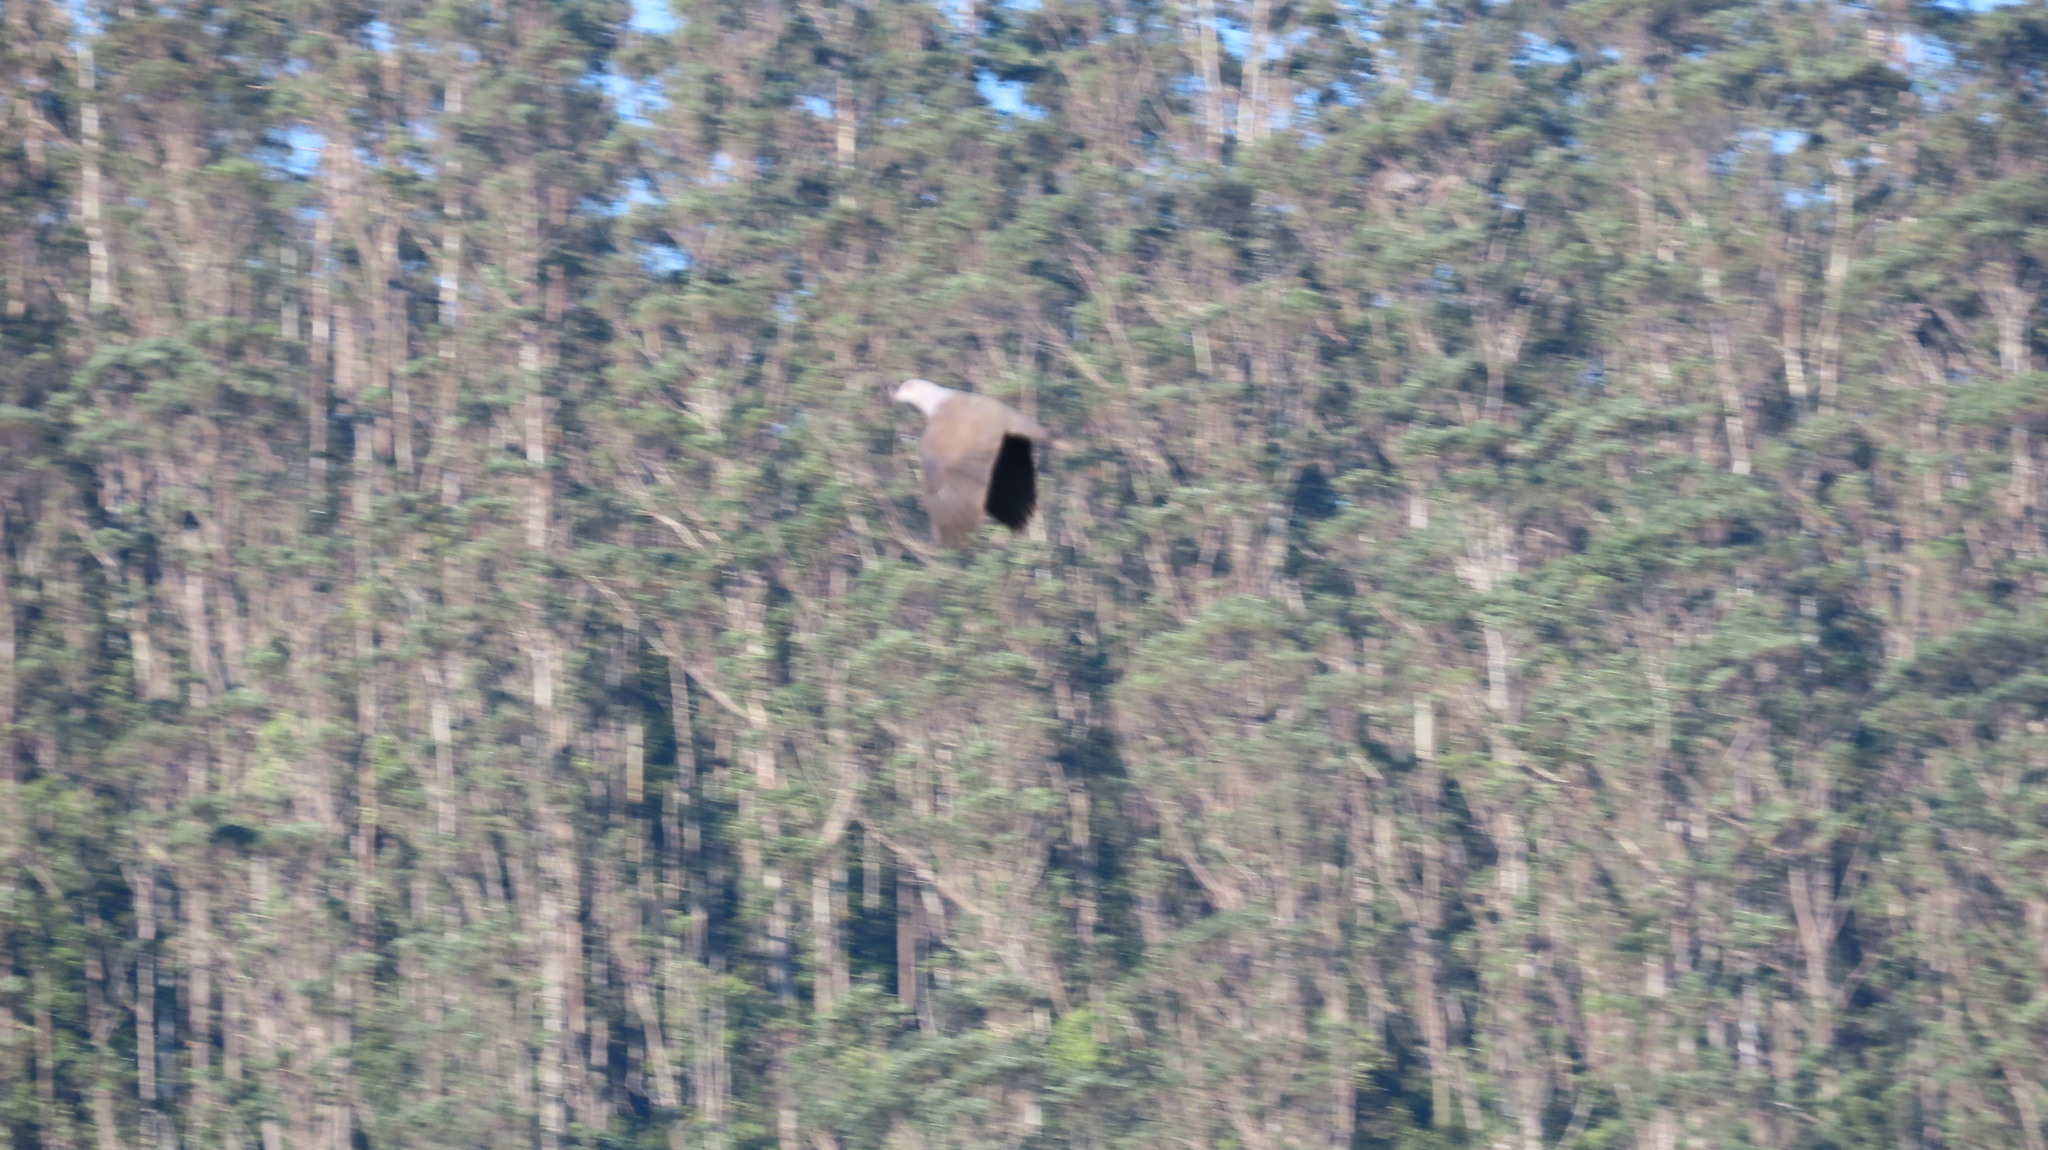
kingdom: Animalia
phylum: Chordata
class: Aves
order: Columbiformes
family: Columbidae
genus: Ducula
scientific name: Ducula badia
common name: Mountain imperial pigeon
